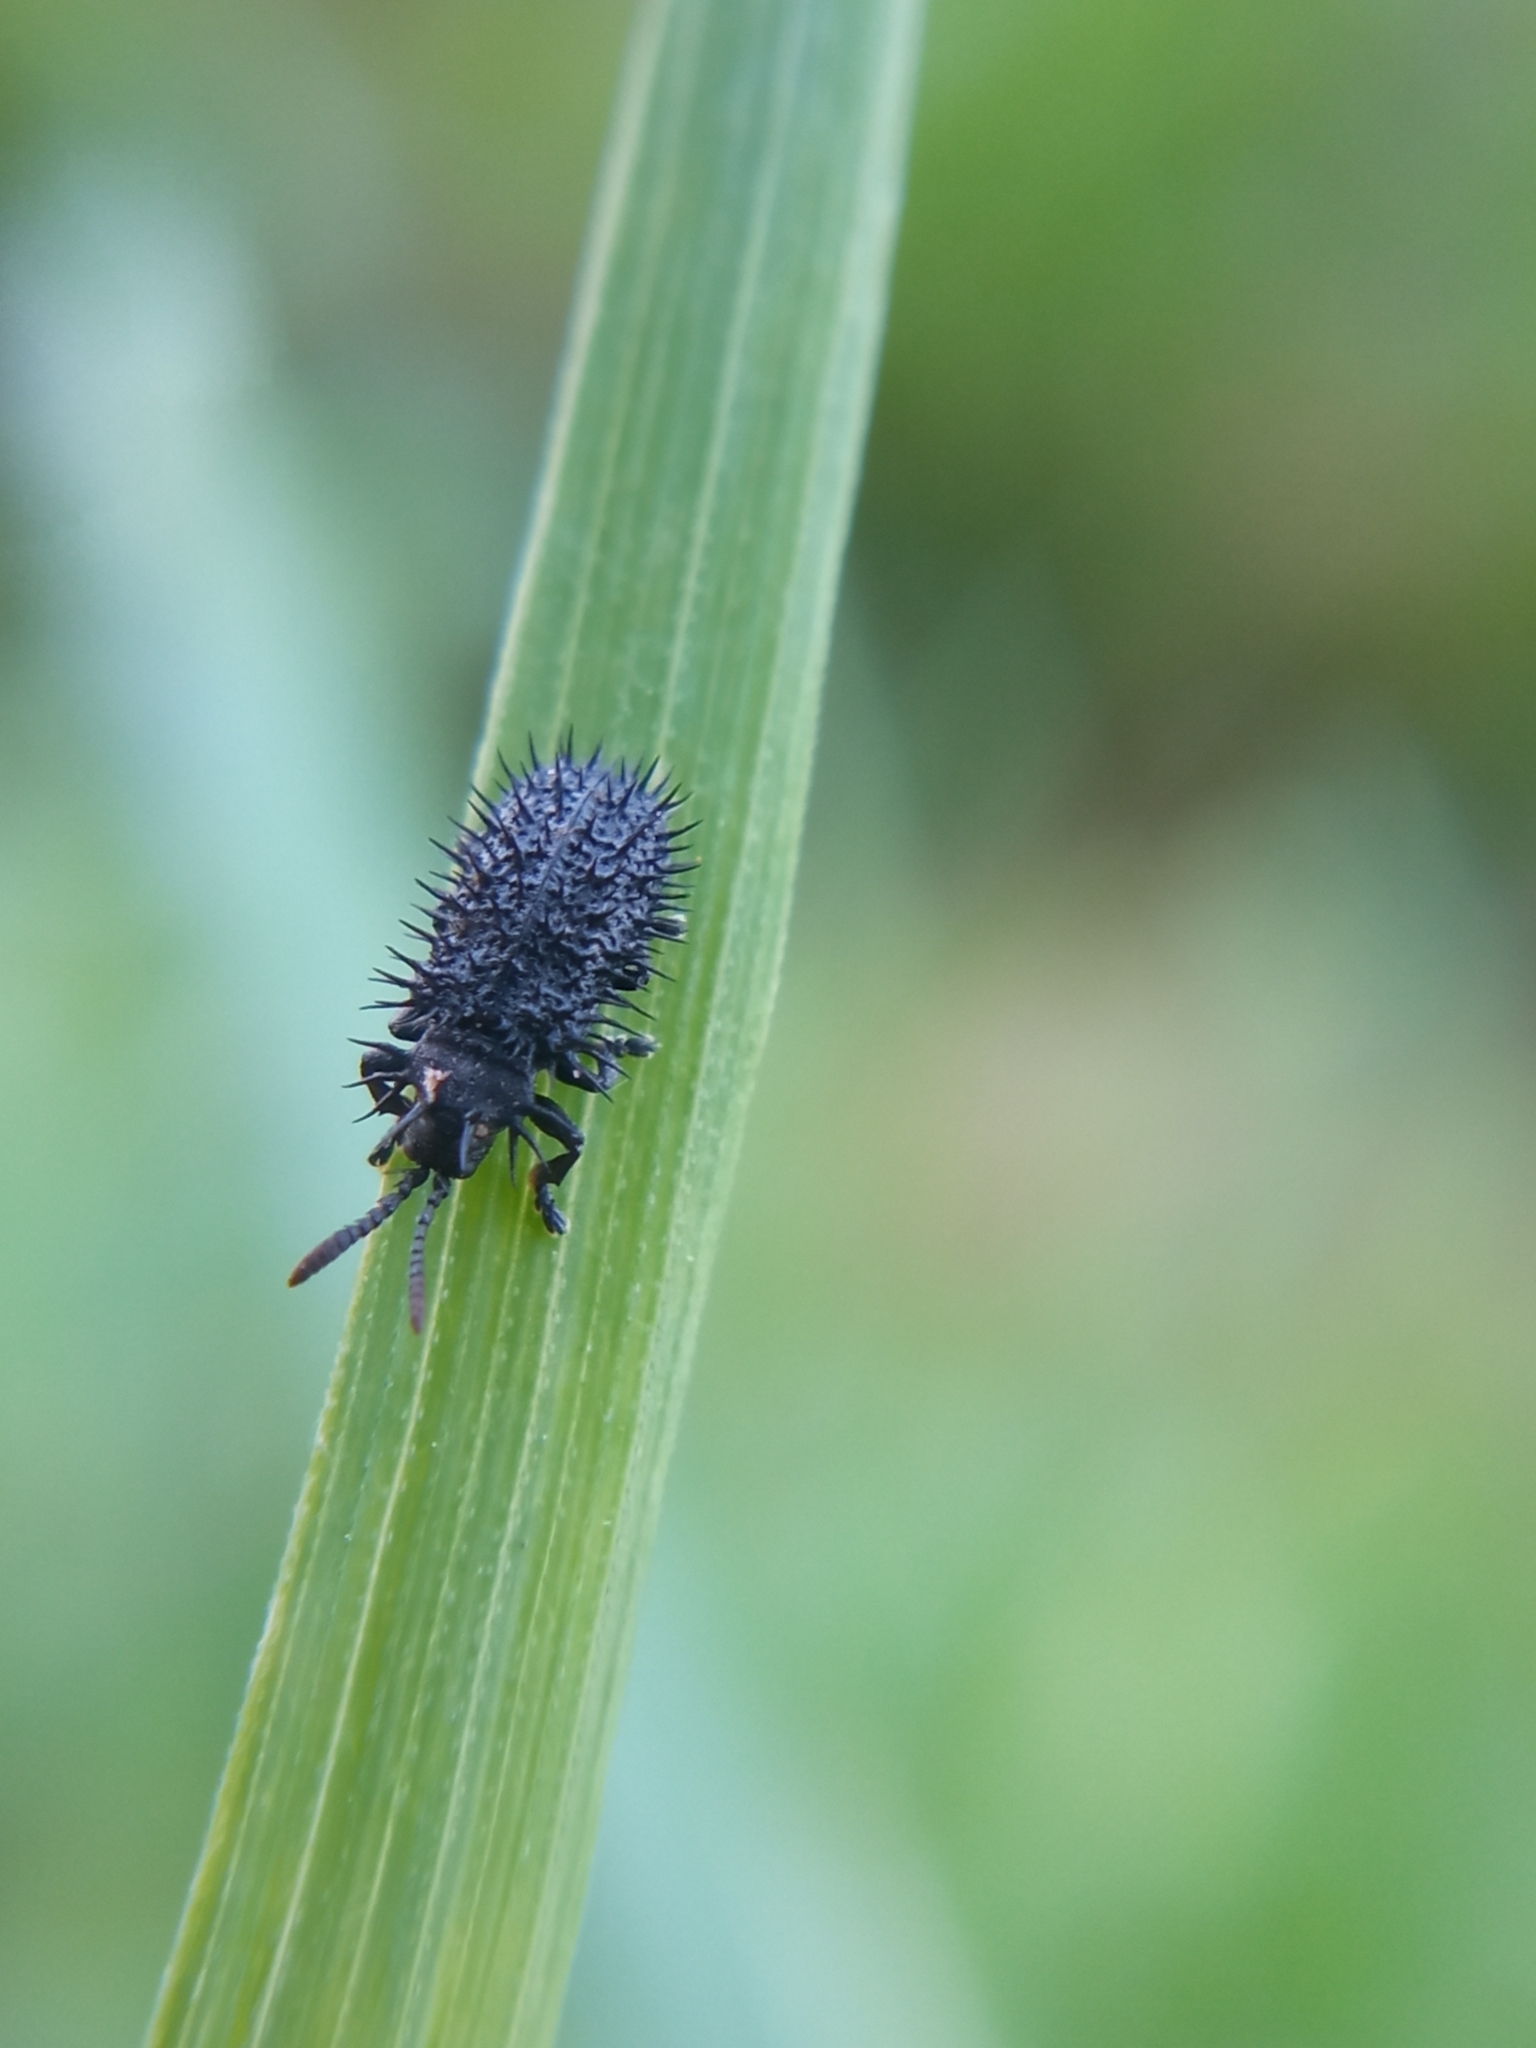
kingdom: Animalia
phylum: Arthropoda
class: Insecta
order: Coleoptera
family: Chrysomelidae
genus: Hispa
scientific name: Hispa atra
